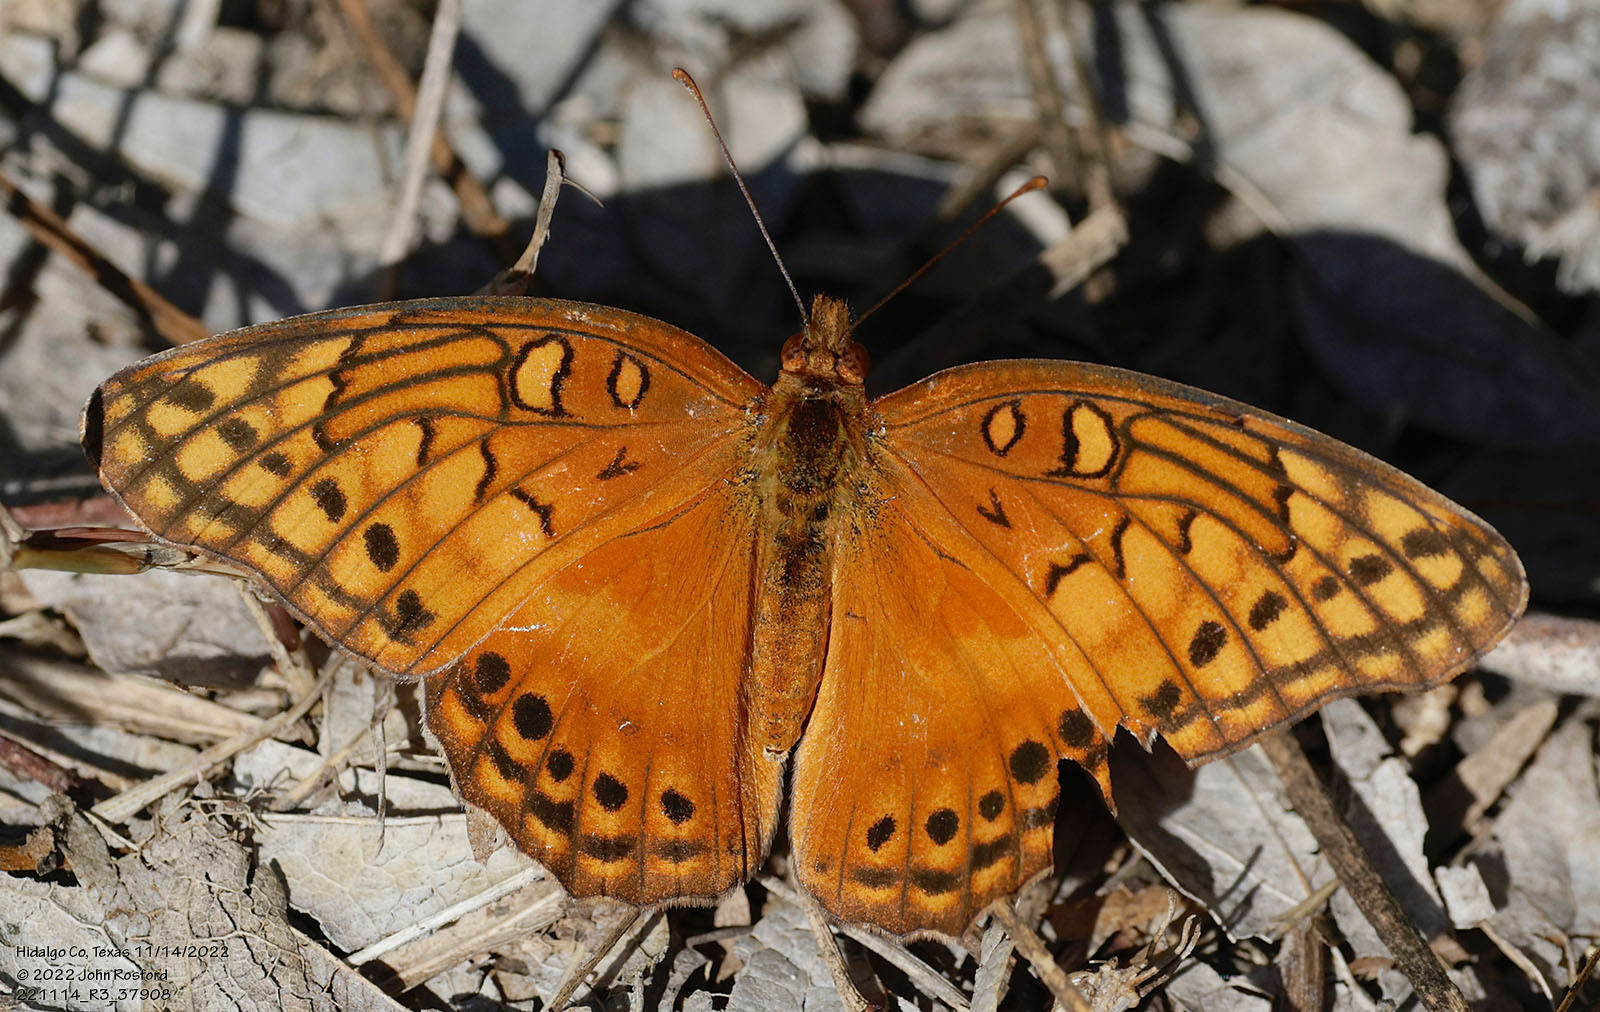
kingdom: Animalia
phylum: Arthropoda
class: Insecta
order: Lepidoptera
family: Nymphalidae
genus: Euptoieta
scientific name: Euptoieta hegesia
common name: Mexican fritillary
